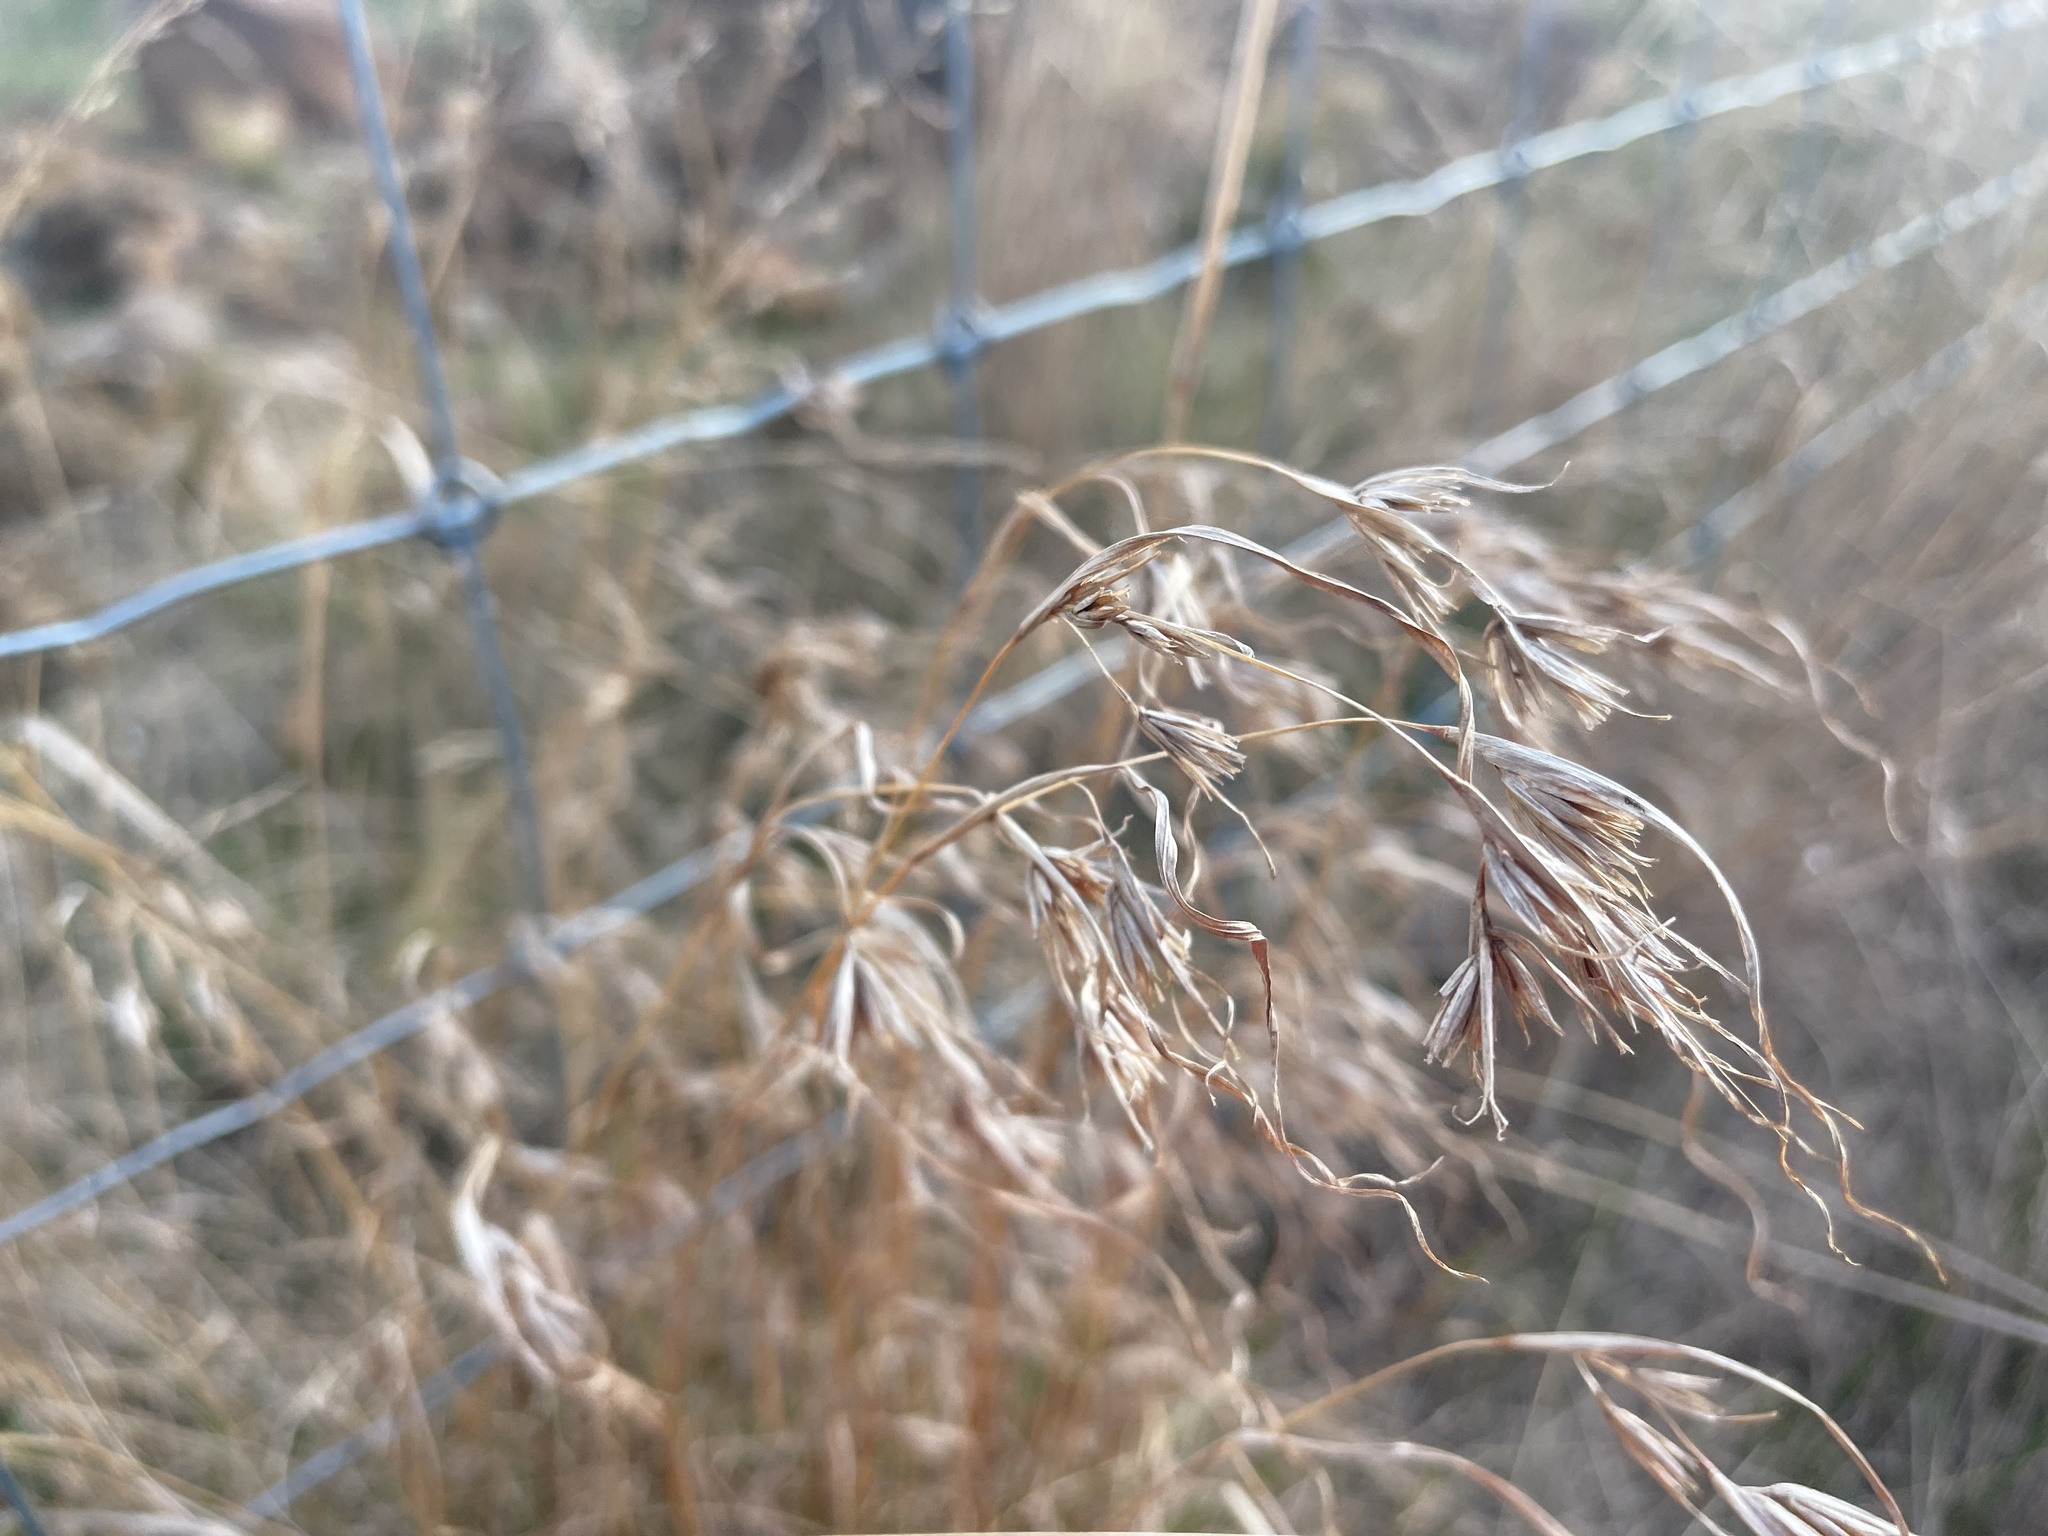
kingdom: Plantae
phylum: Tracheophyta
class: Liliopsida
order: Poales
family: Poaceae
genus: Themeda
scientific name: Themeda triandra
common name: Kangaroo grass
